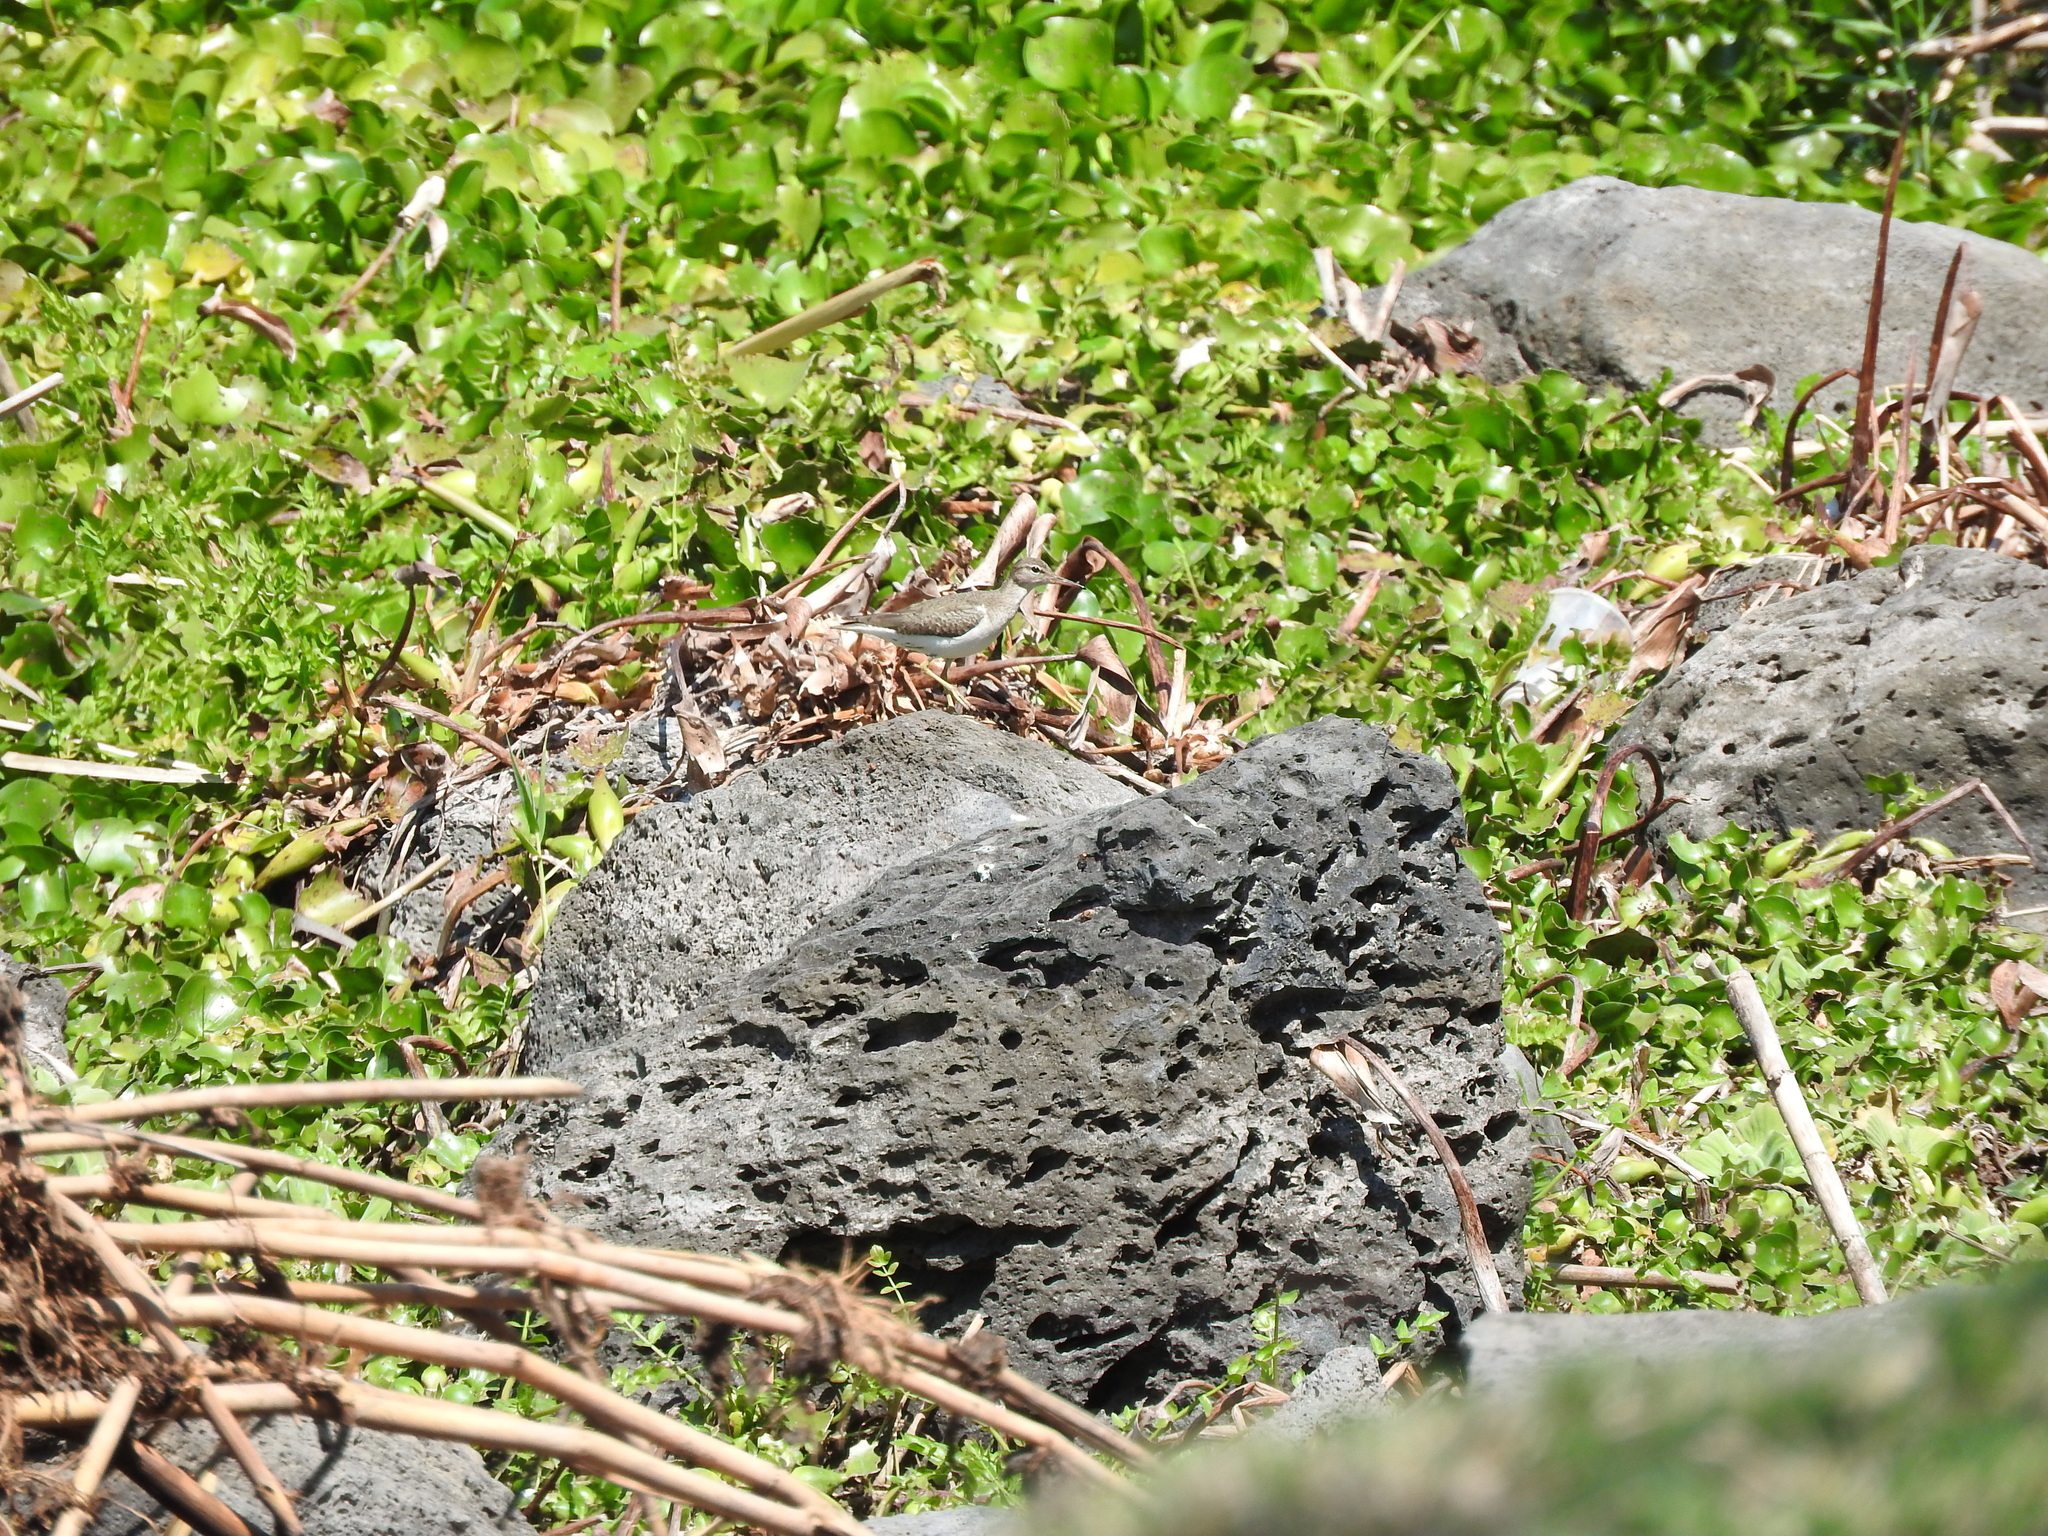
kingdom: Animalia
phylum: Chordata
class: Aves
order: Charadriiformes
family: Scolopacidae
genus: Actitis
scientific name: Actitis macularius
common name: Spotted sandpiper
